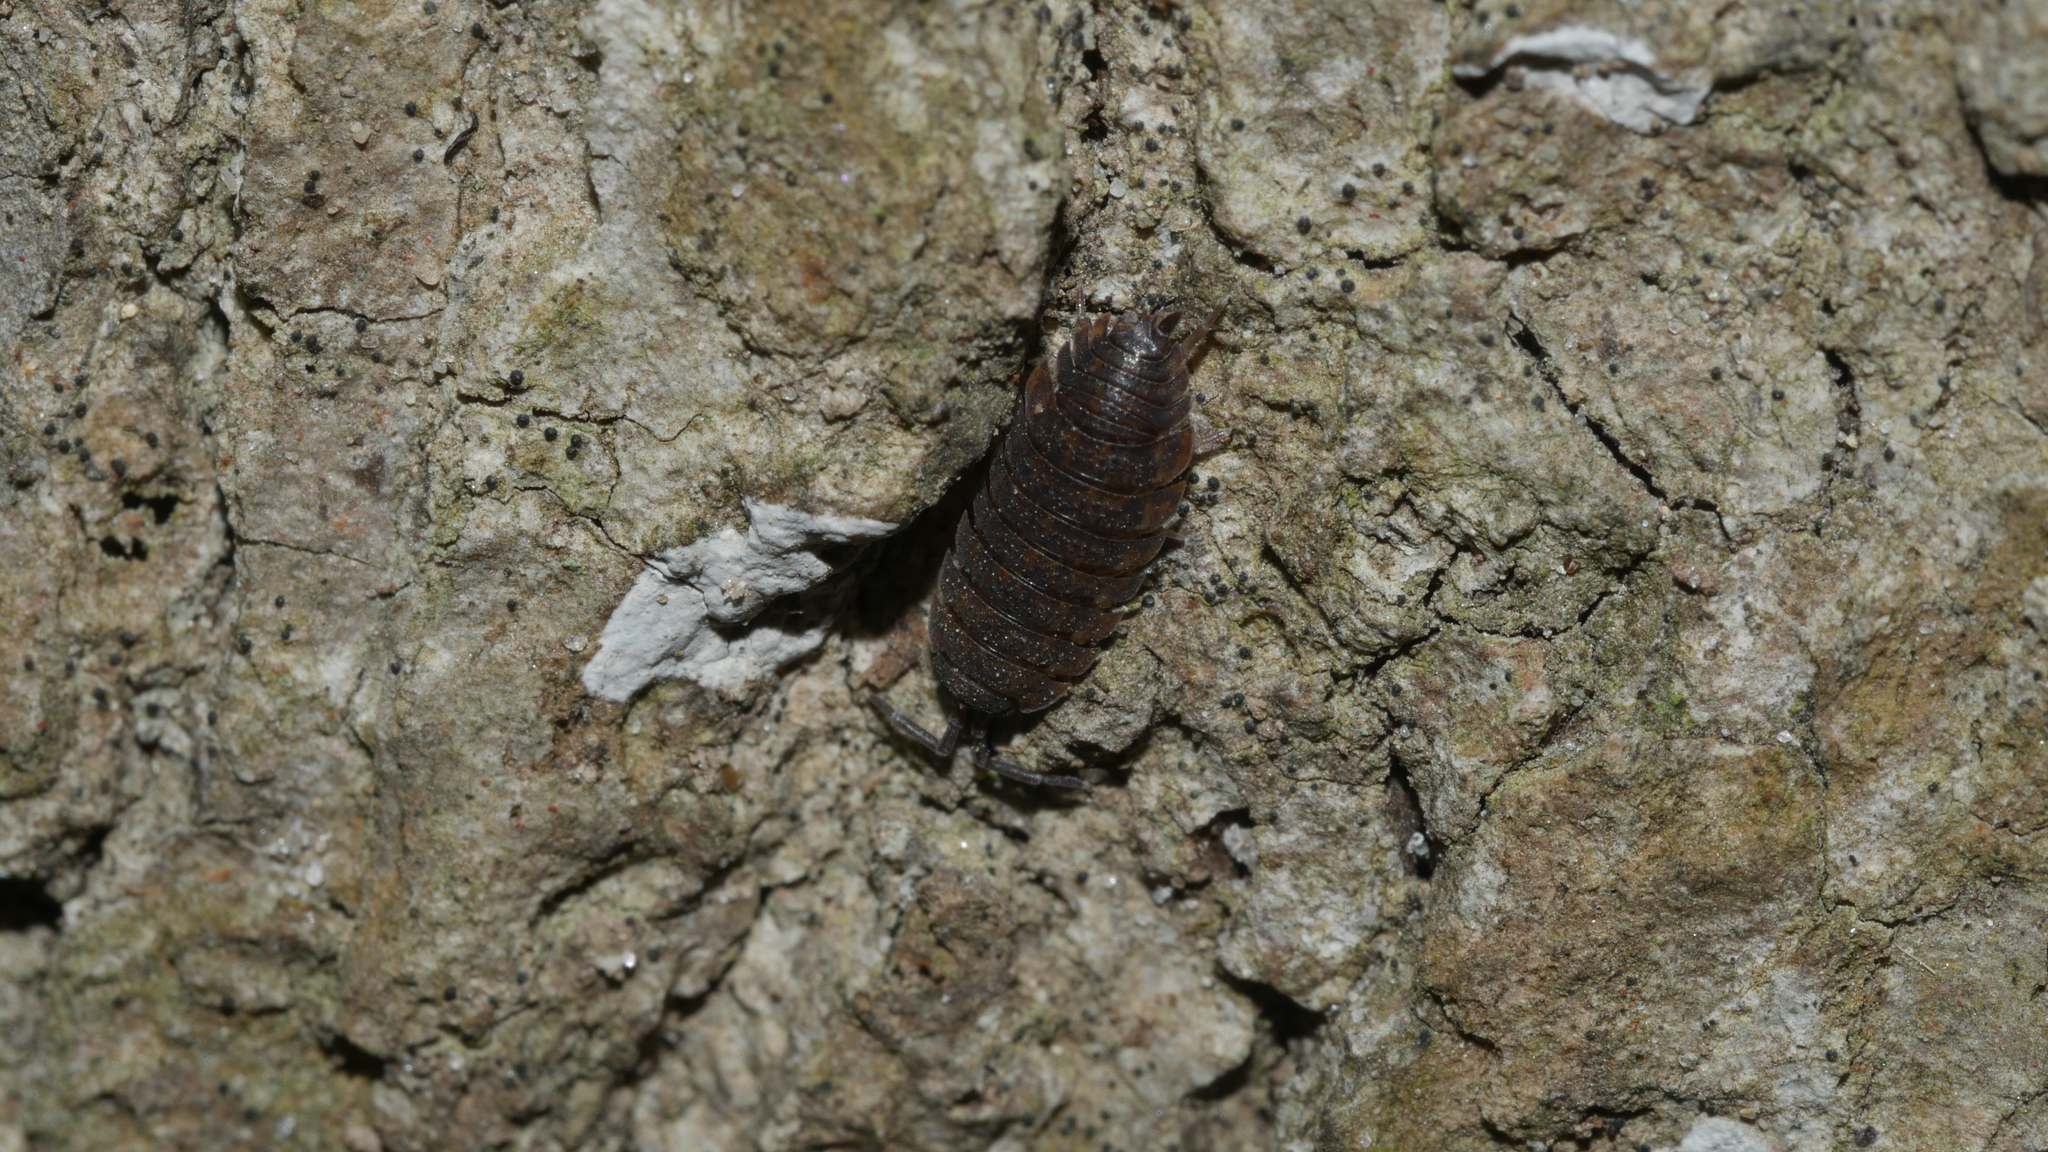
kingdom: Animalia
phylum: Arthropoda
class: Malacostraca
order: Isopoda
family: Porcellionidae
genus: Porcellio
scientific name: Porcellio scaber
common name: Common rough woodlouse
